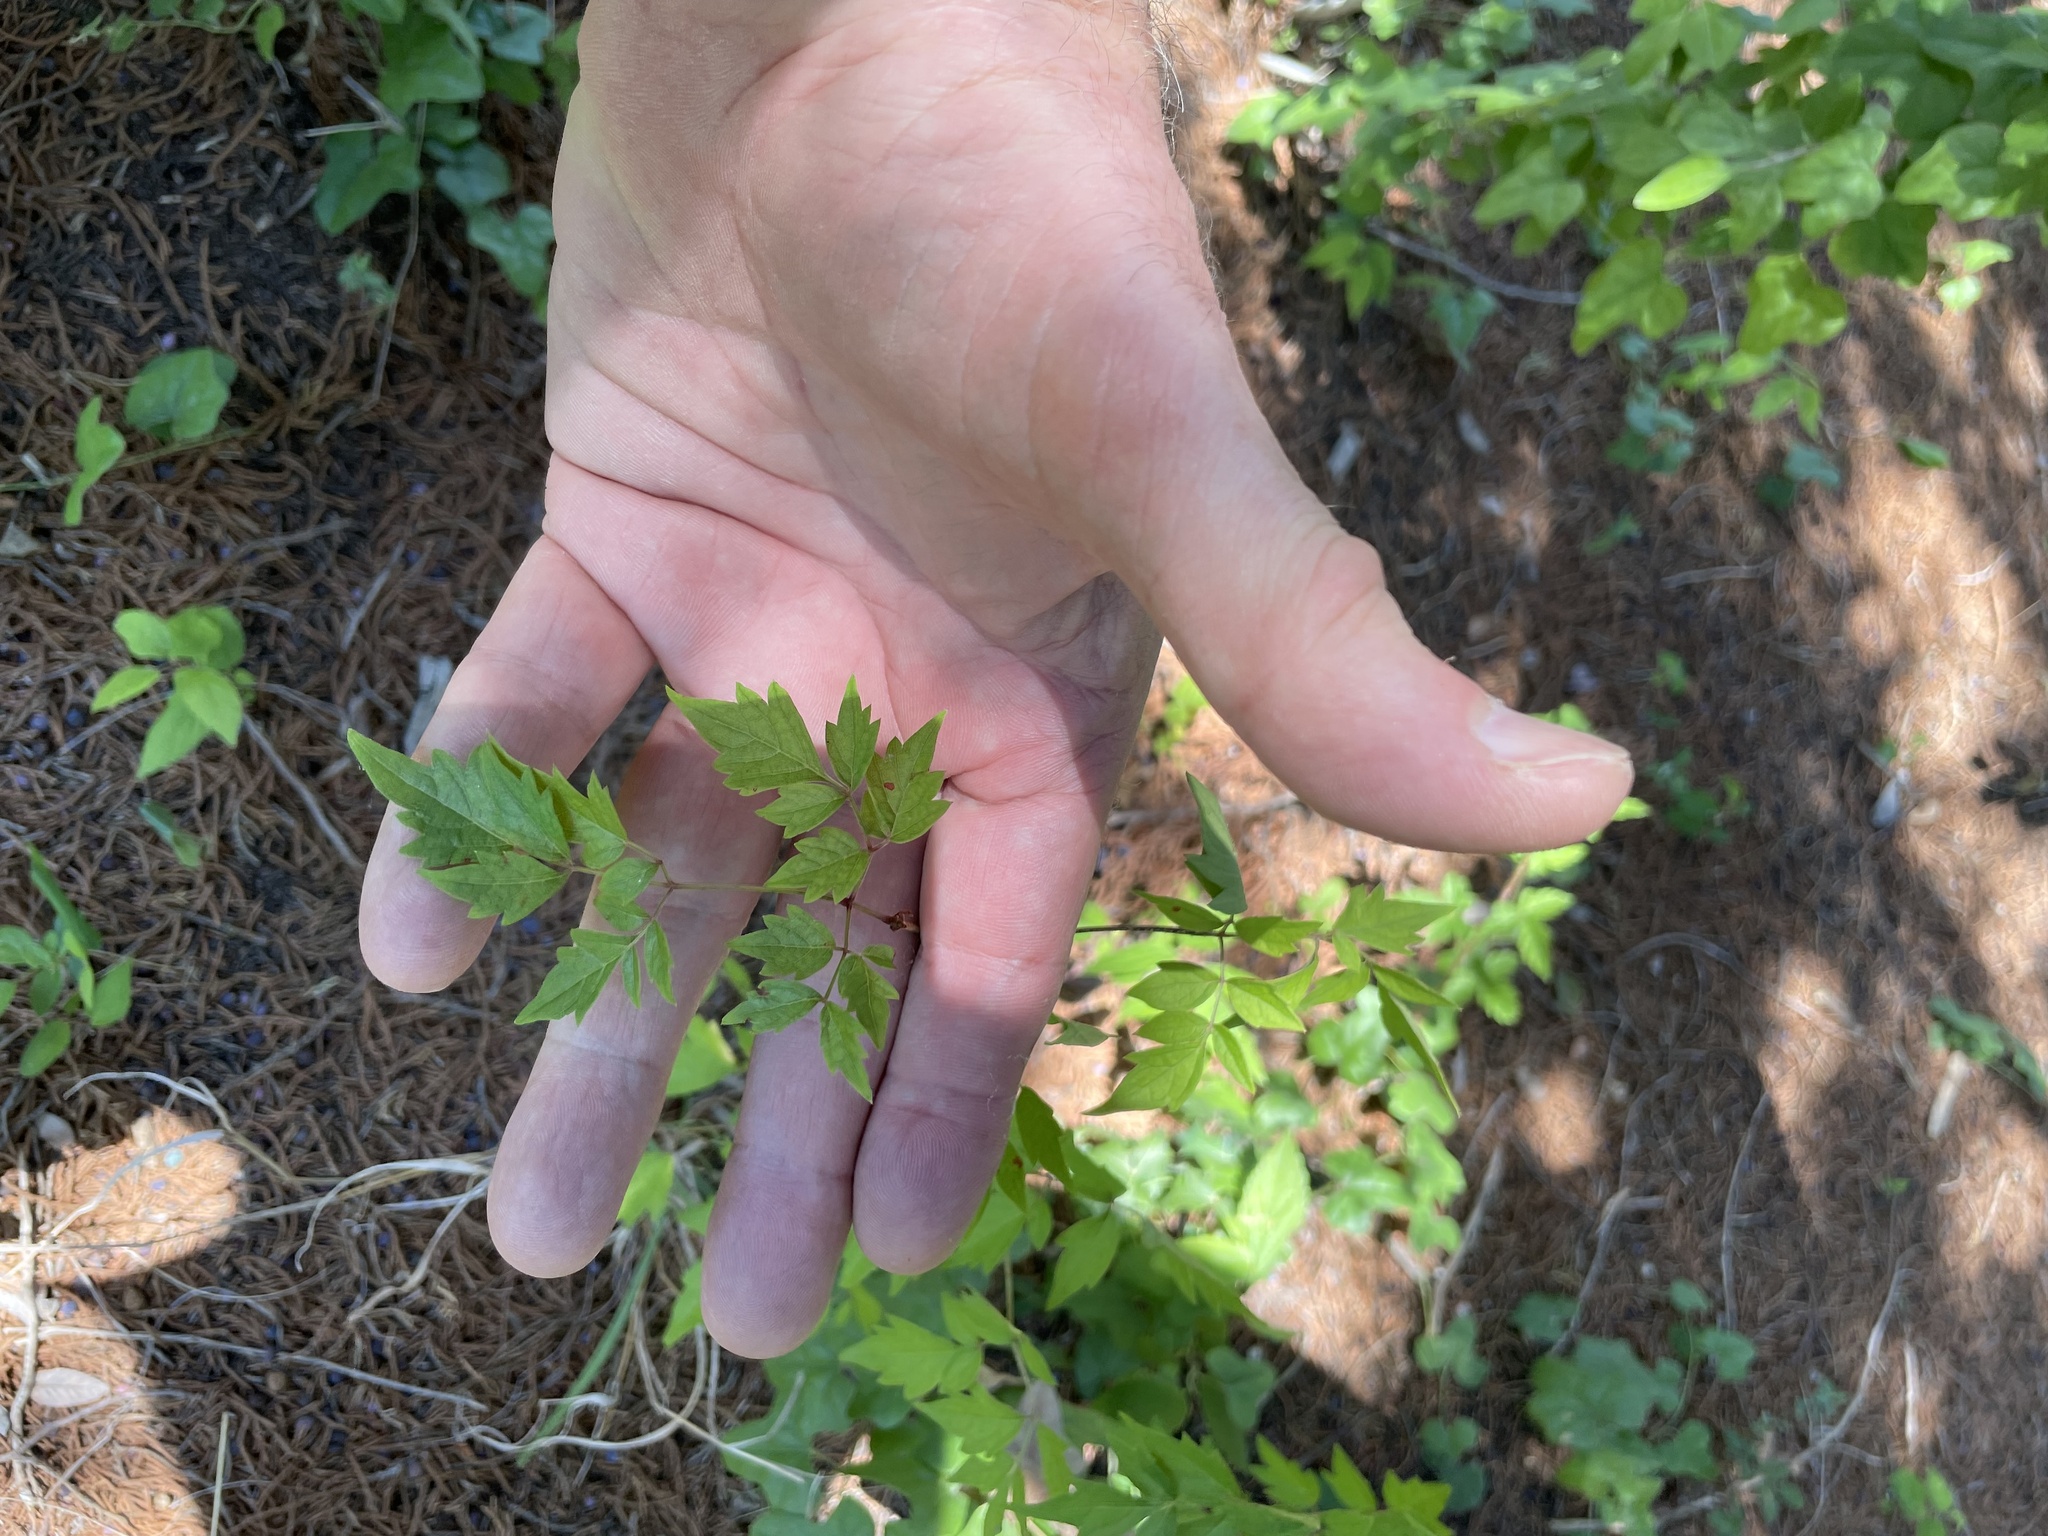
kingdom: Plantae
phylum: Tracheophyta
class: Magnoliopsida
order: Vitales
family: Vitaceae
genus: Nekemias
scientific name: Nekemias arborea
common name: Peppervine
